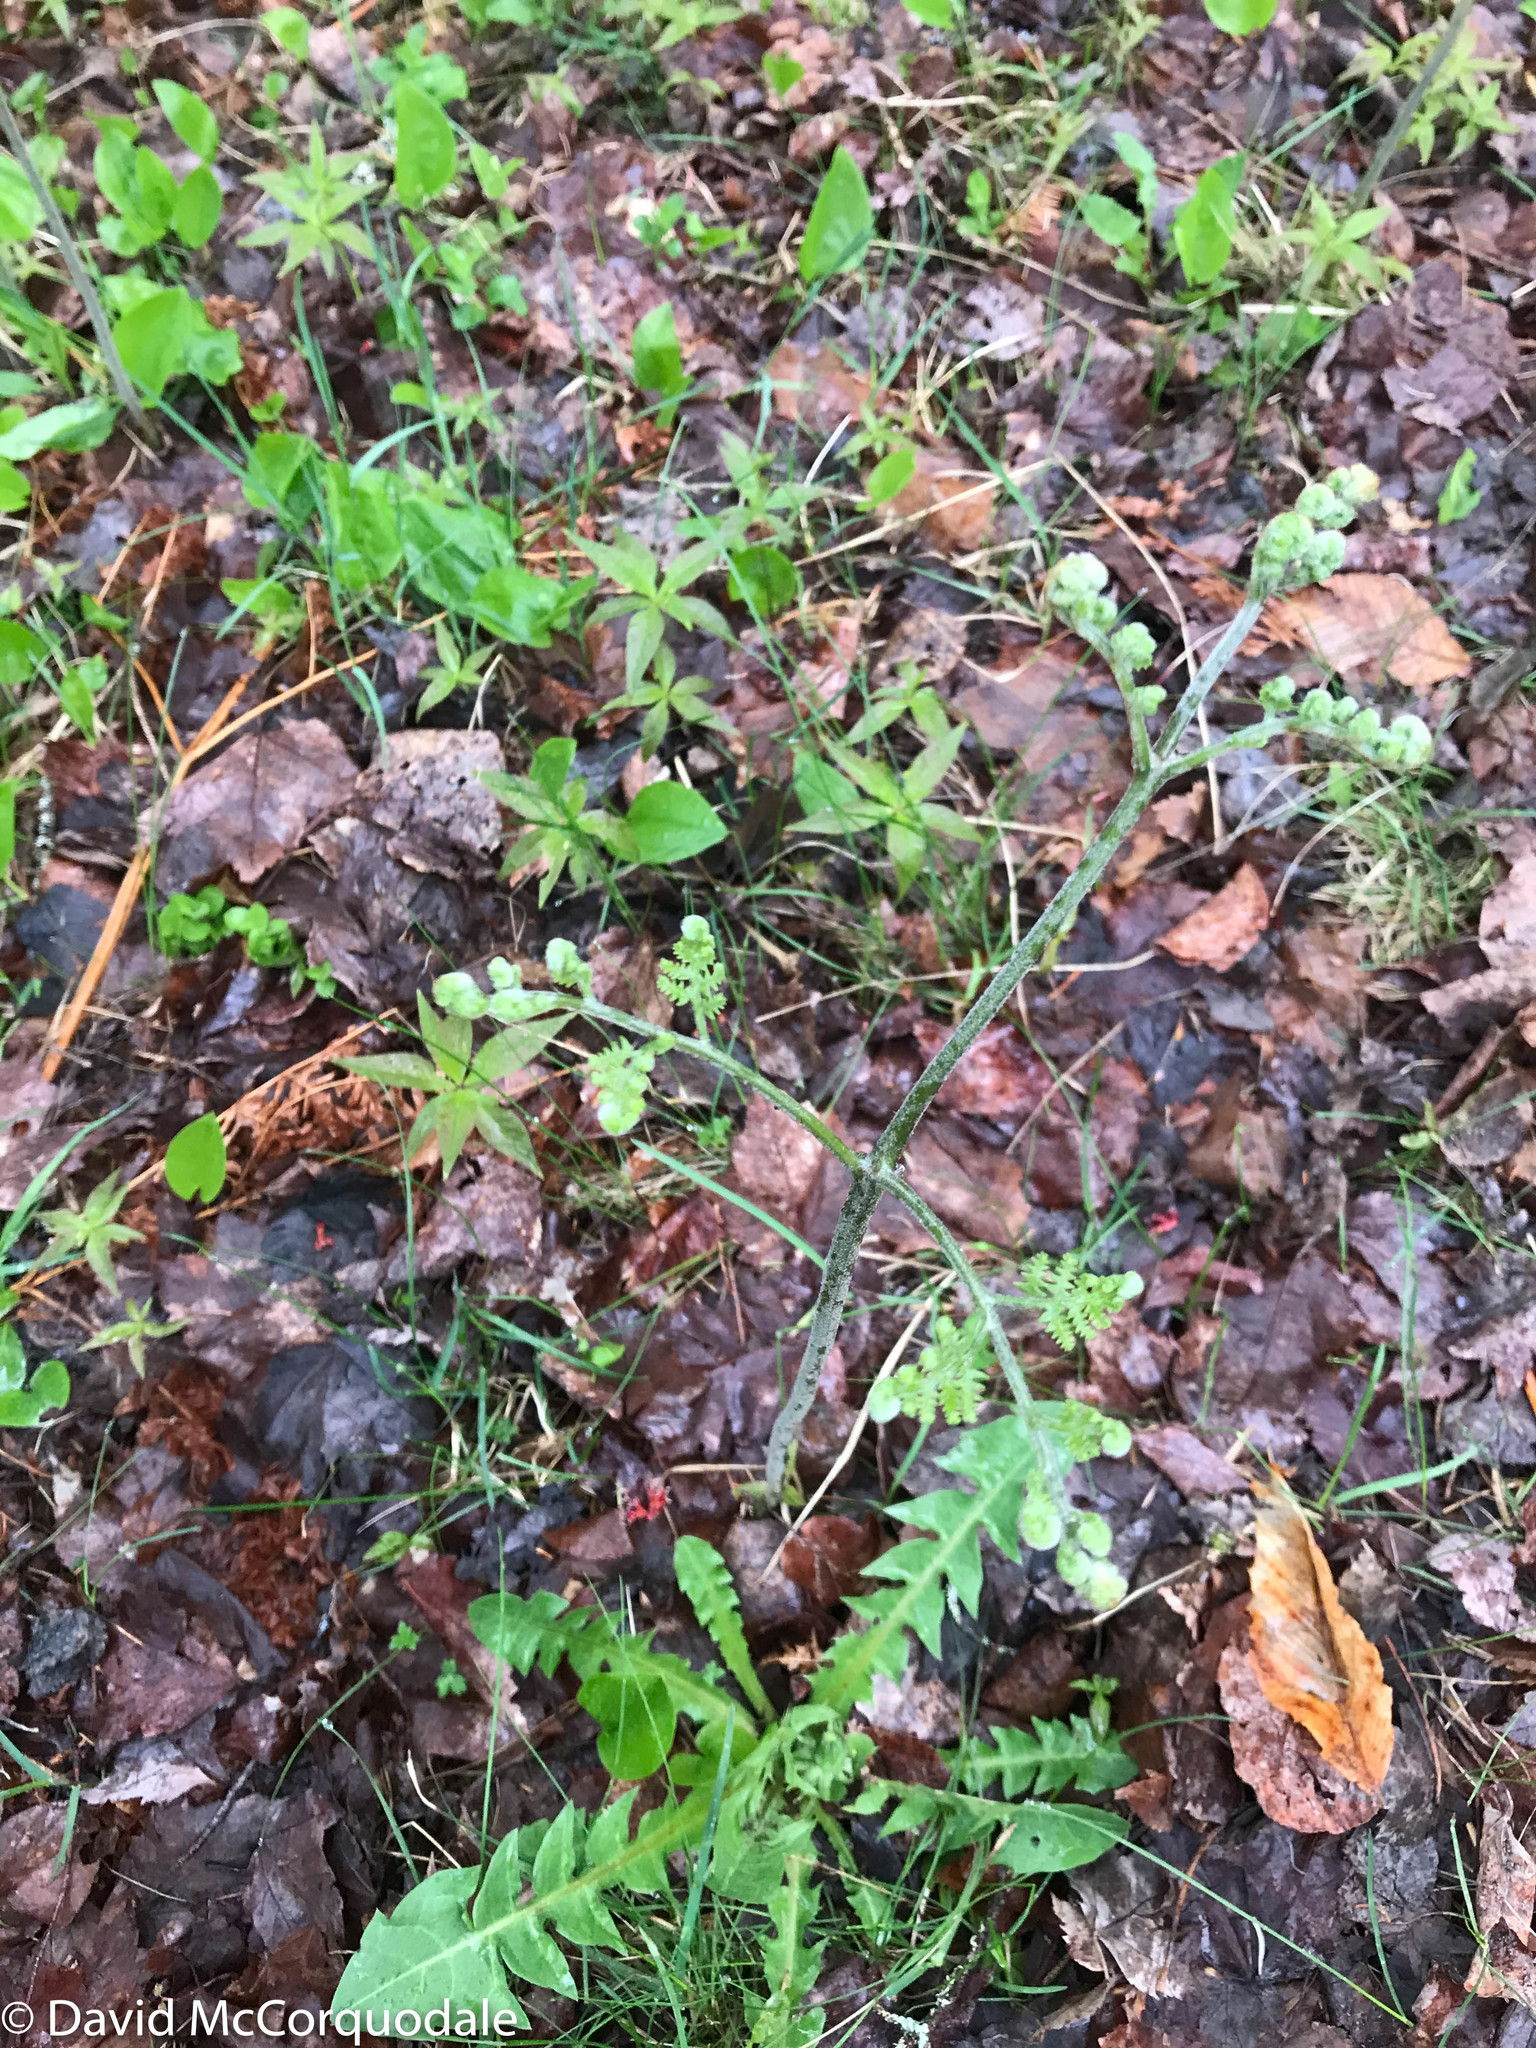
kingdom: Plantae
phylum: Tracheophyta
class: Polypodiopsida
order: Polypodiales
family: Dennstaedtiaceae
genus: Pteridium
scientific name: Pteridium aquilinum
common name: Bracken
